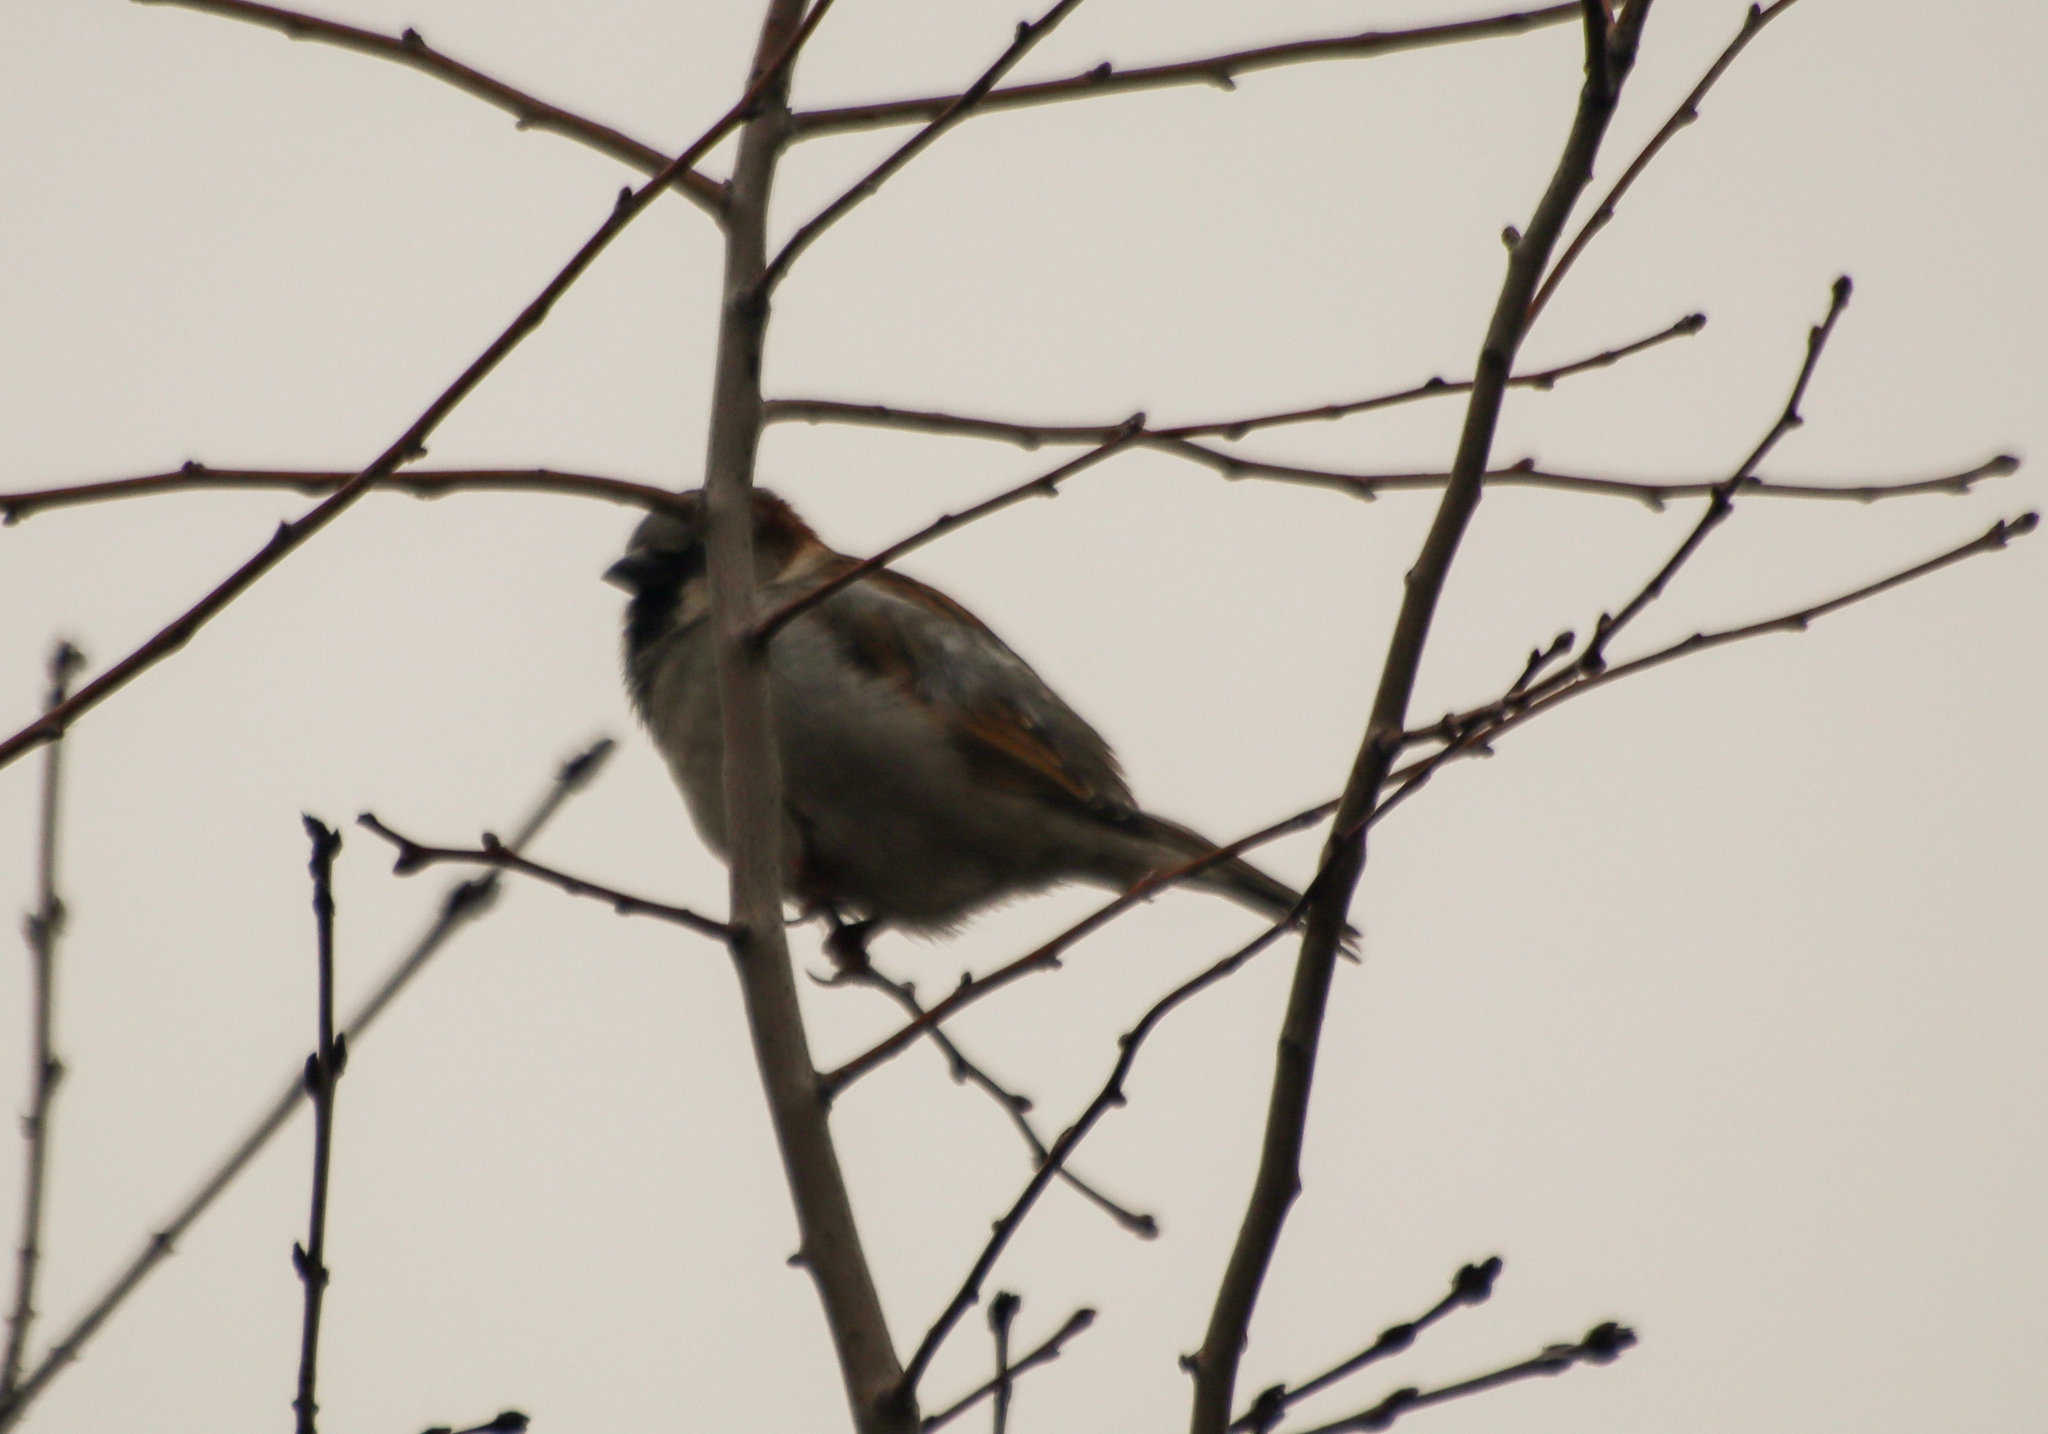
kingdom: Animalia
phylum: Chordata
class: Aves
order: Passeriformes
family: Passeridae
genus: Passer
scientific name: Passer domesticus
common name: House sparrow
